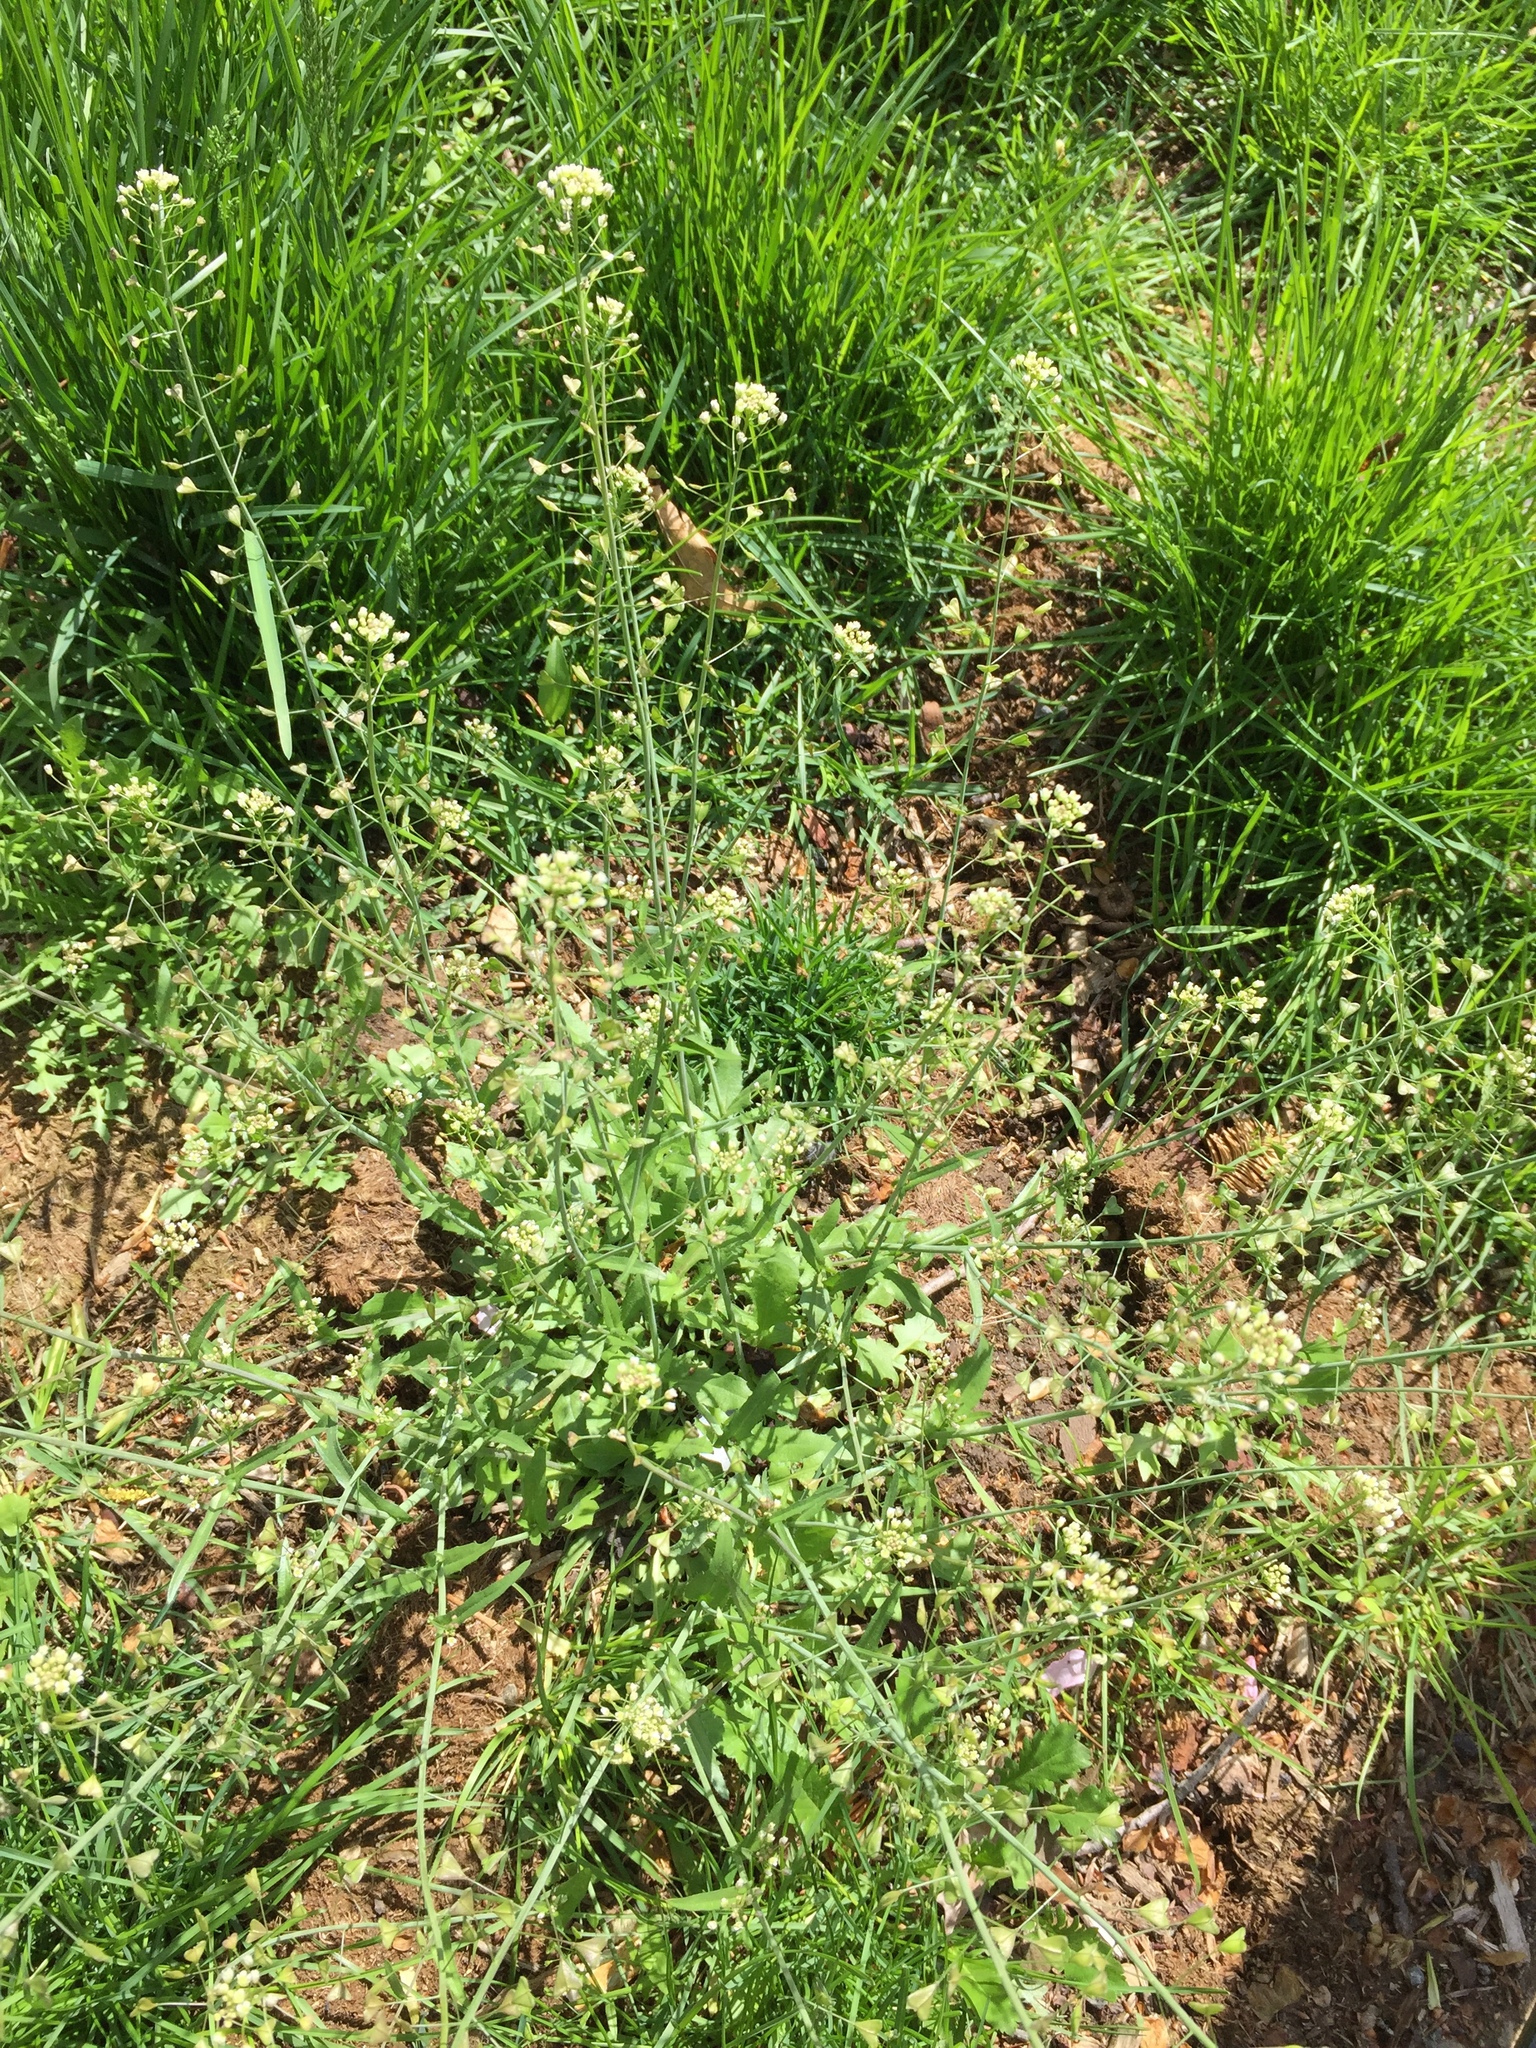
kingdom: Plantae
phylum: Tracheophyta
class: Magnoliopsida
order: Brassicales
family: Brassicaceae
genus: Capsella
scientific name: Capsella bursa-pastoris
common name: Shepherd's purse
